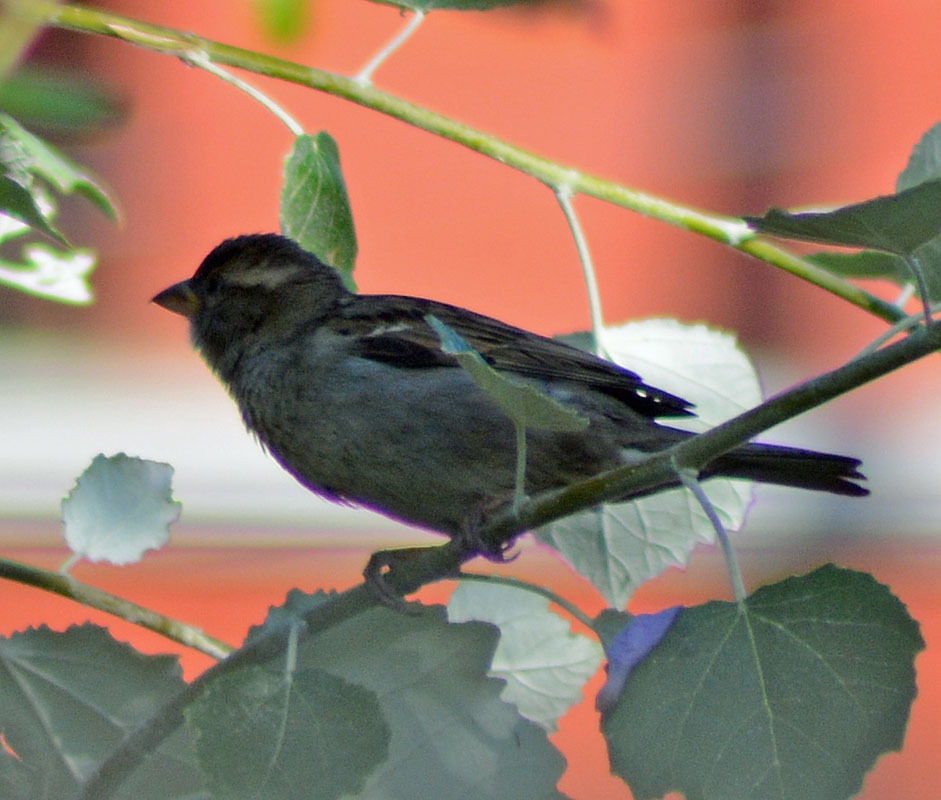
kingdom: Animalia
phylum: Chordata
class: Aves
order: Passeriformes
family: Passeridae
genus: Passer
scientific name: Passer domesticus
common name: House sparrow
